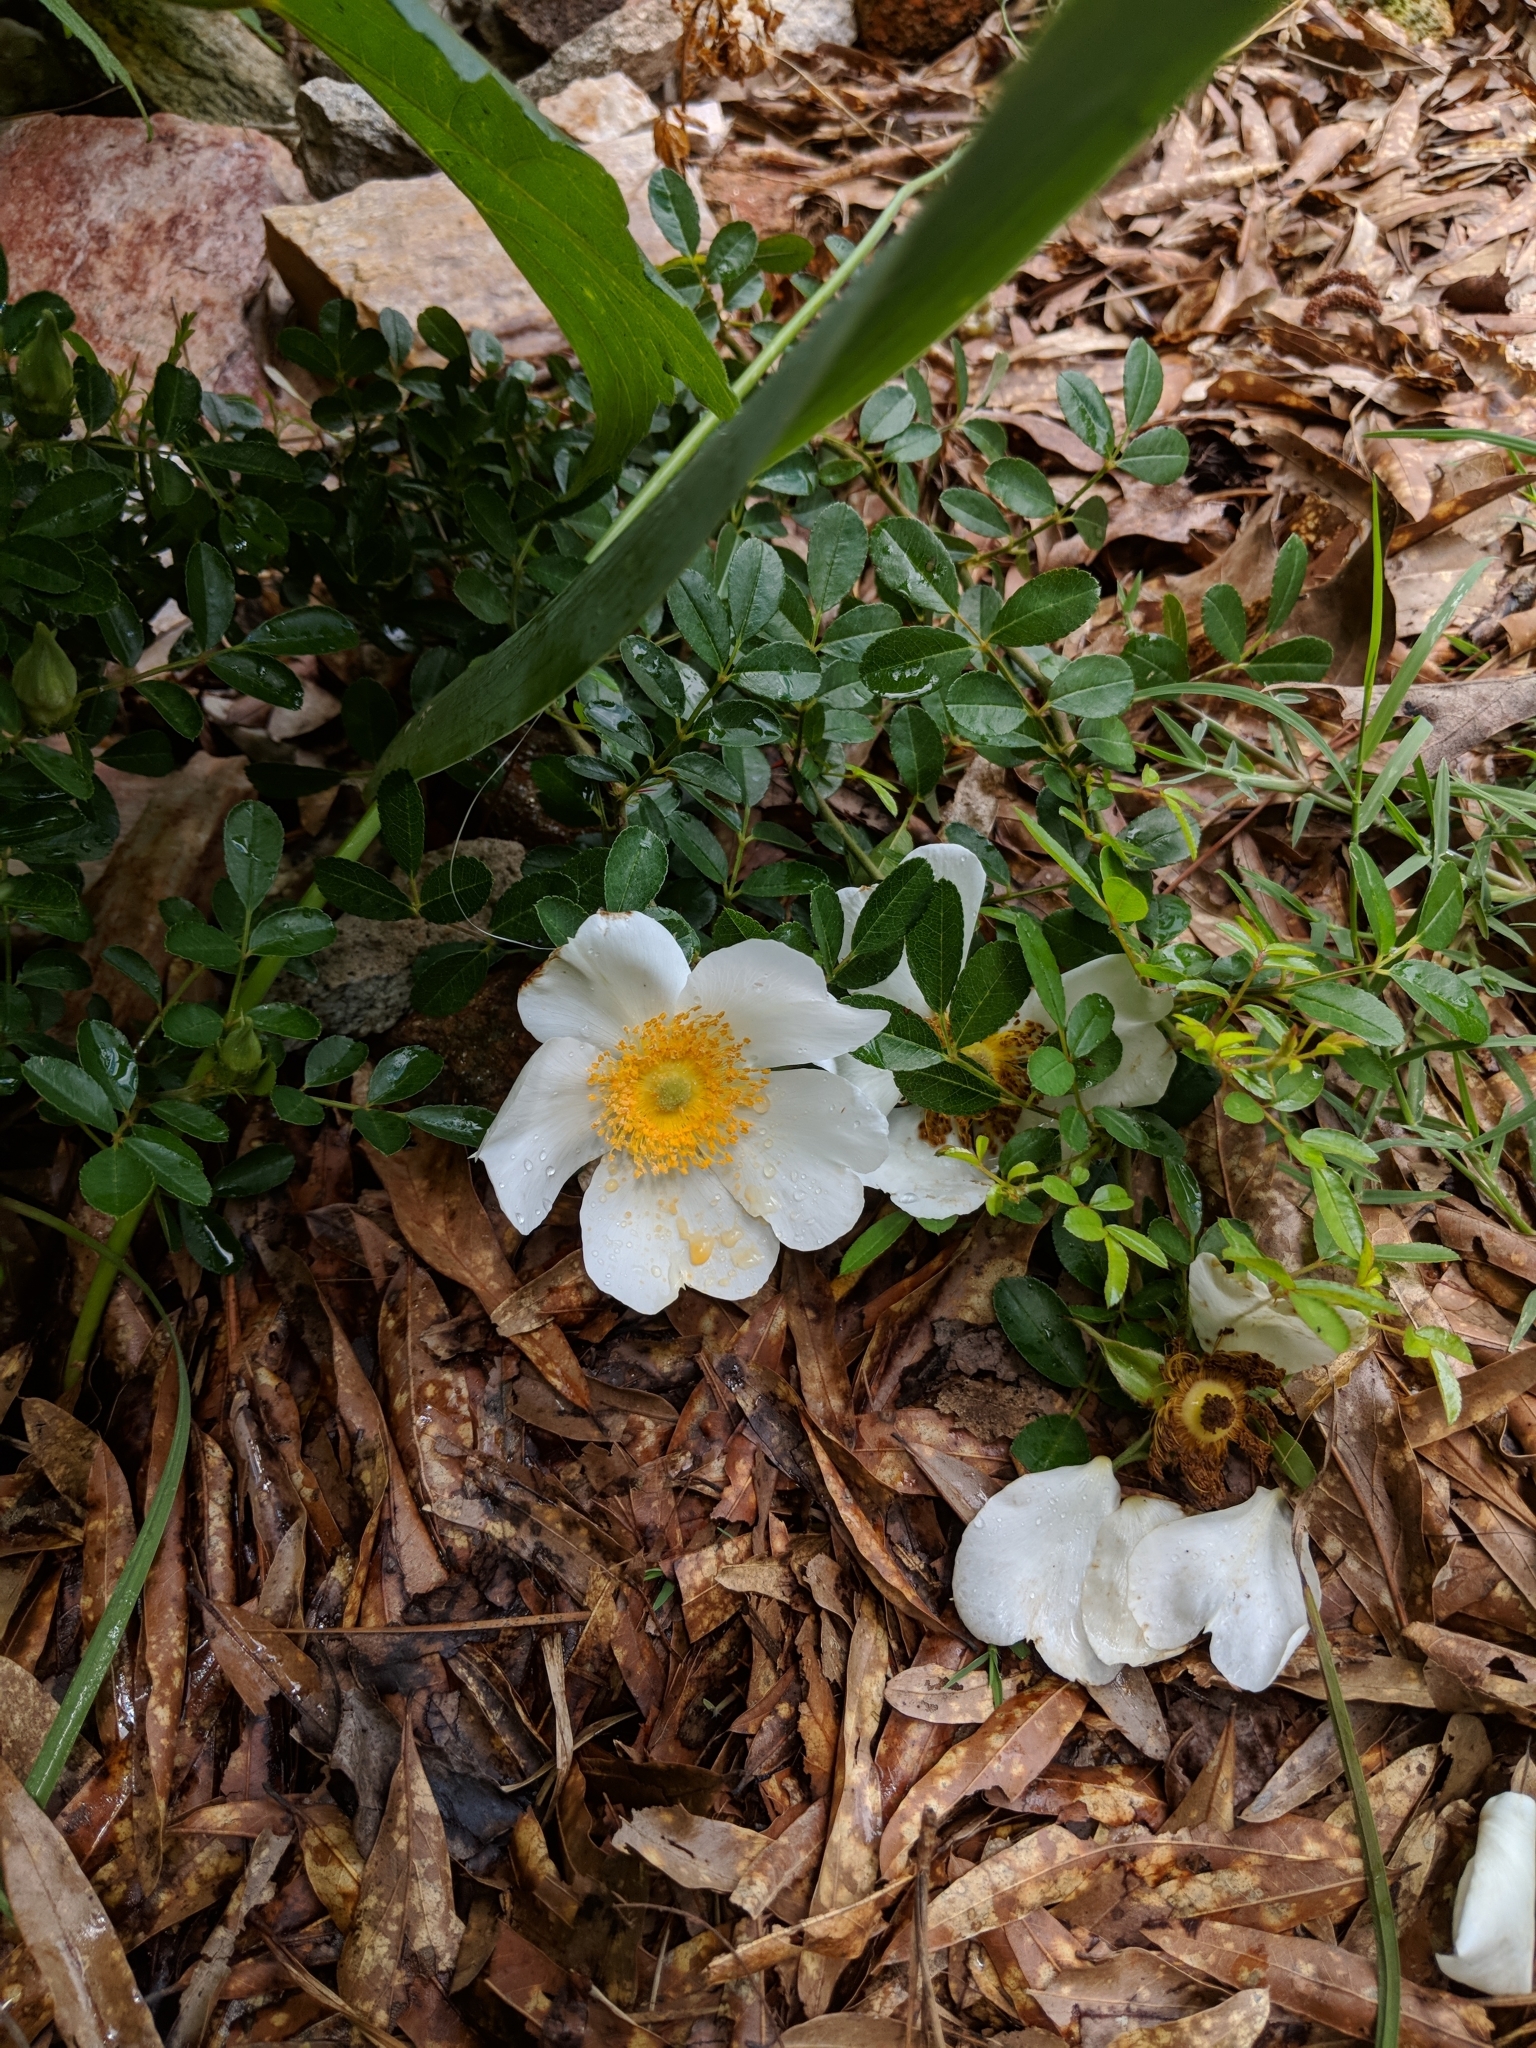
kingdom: Plantae
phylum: Tracheophyta
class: Magnoliopsida
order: Rosales
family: Rosaceae
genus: Rosa
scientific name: Rosa bracteata
